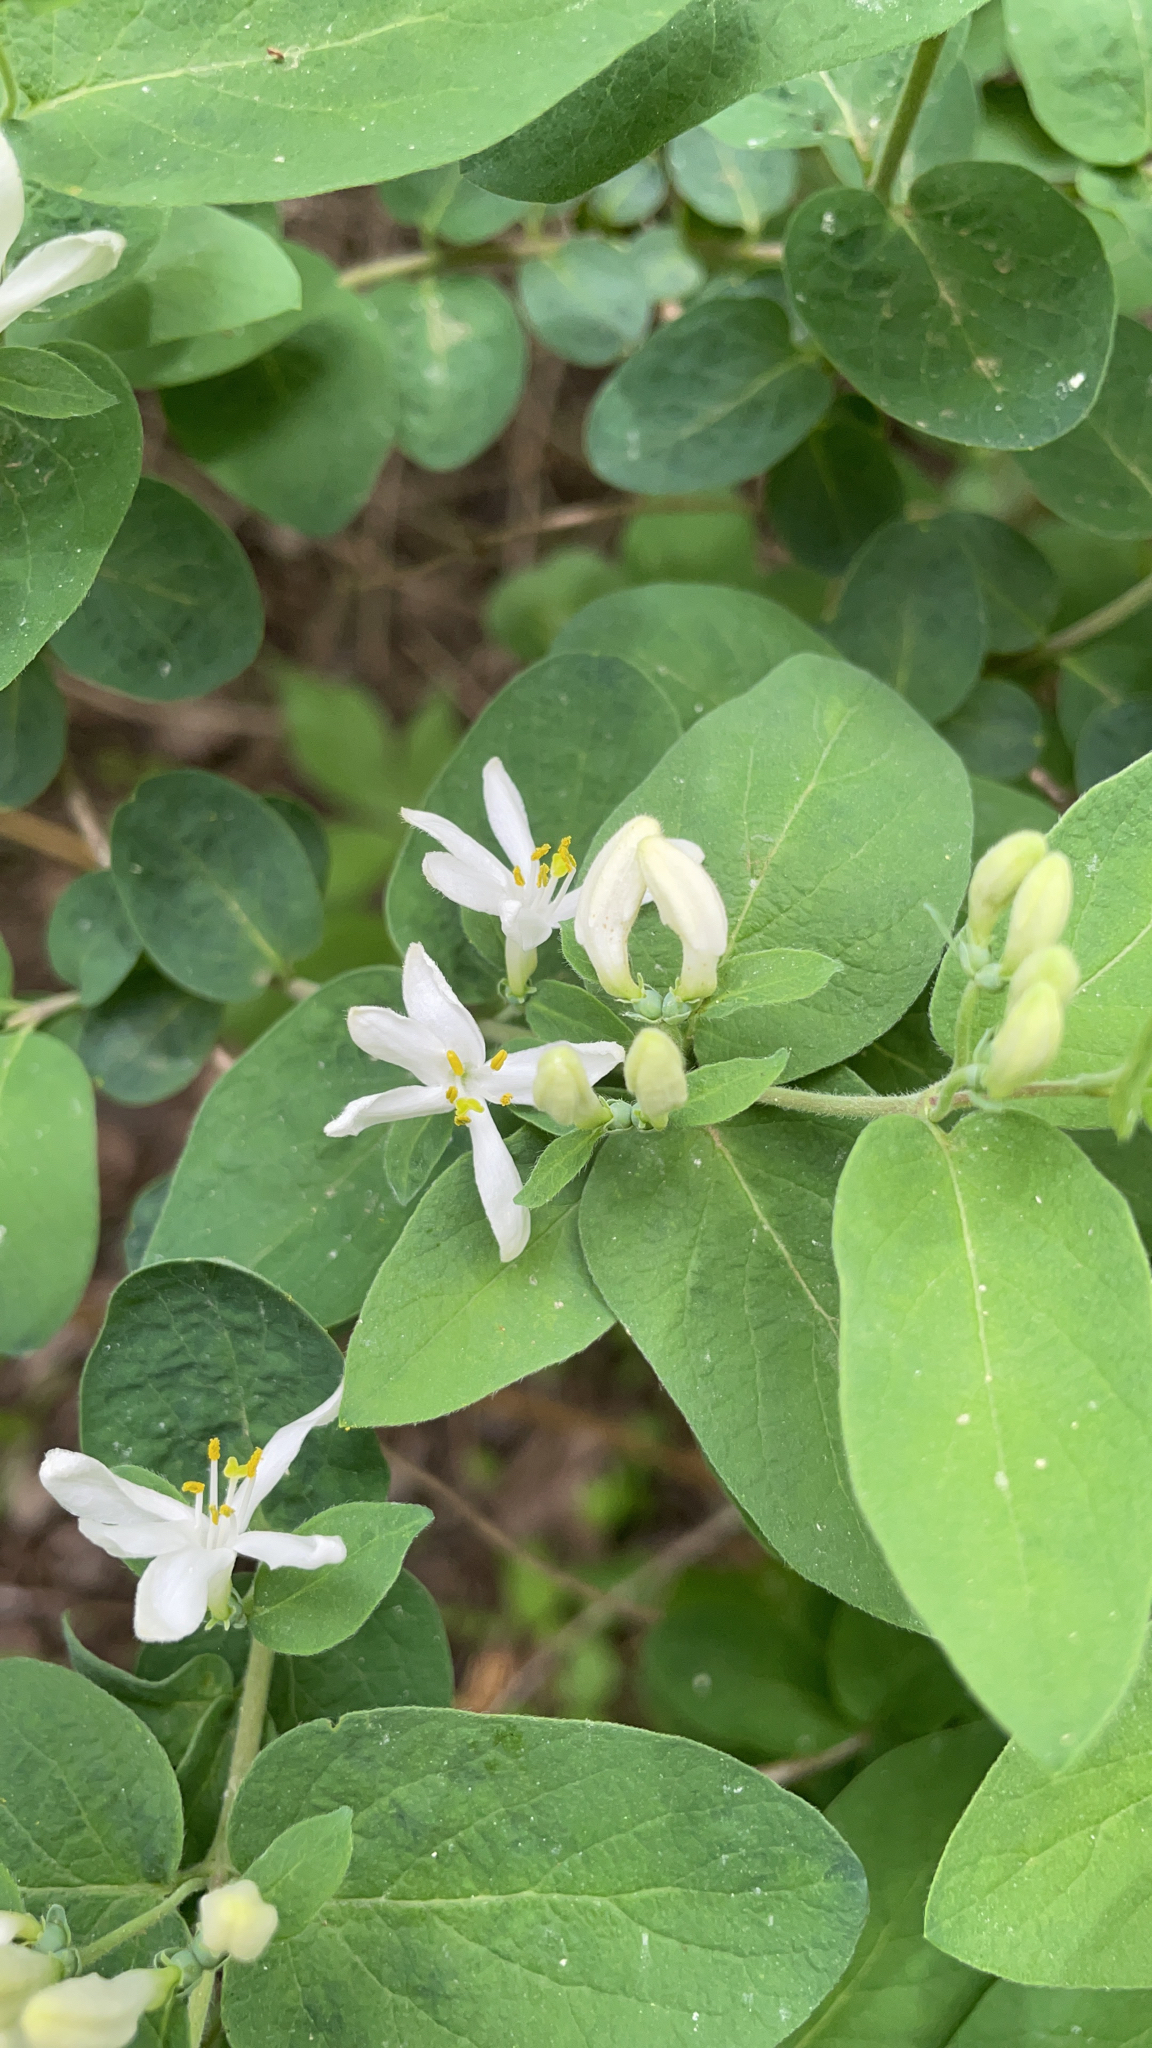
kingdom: Plantae
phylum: Tracheophyta
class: Magnoliopsida
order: Dipsacales
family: Caprifoliaceae
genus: Lonicera
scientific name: Lonicera morrowii
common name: Morrow's honeysuckle
